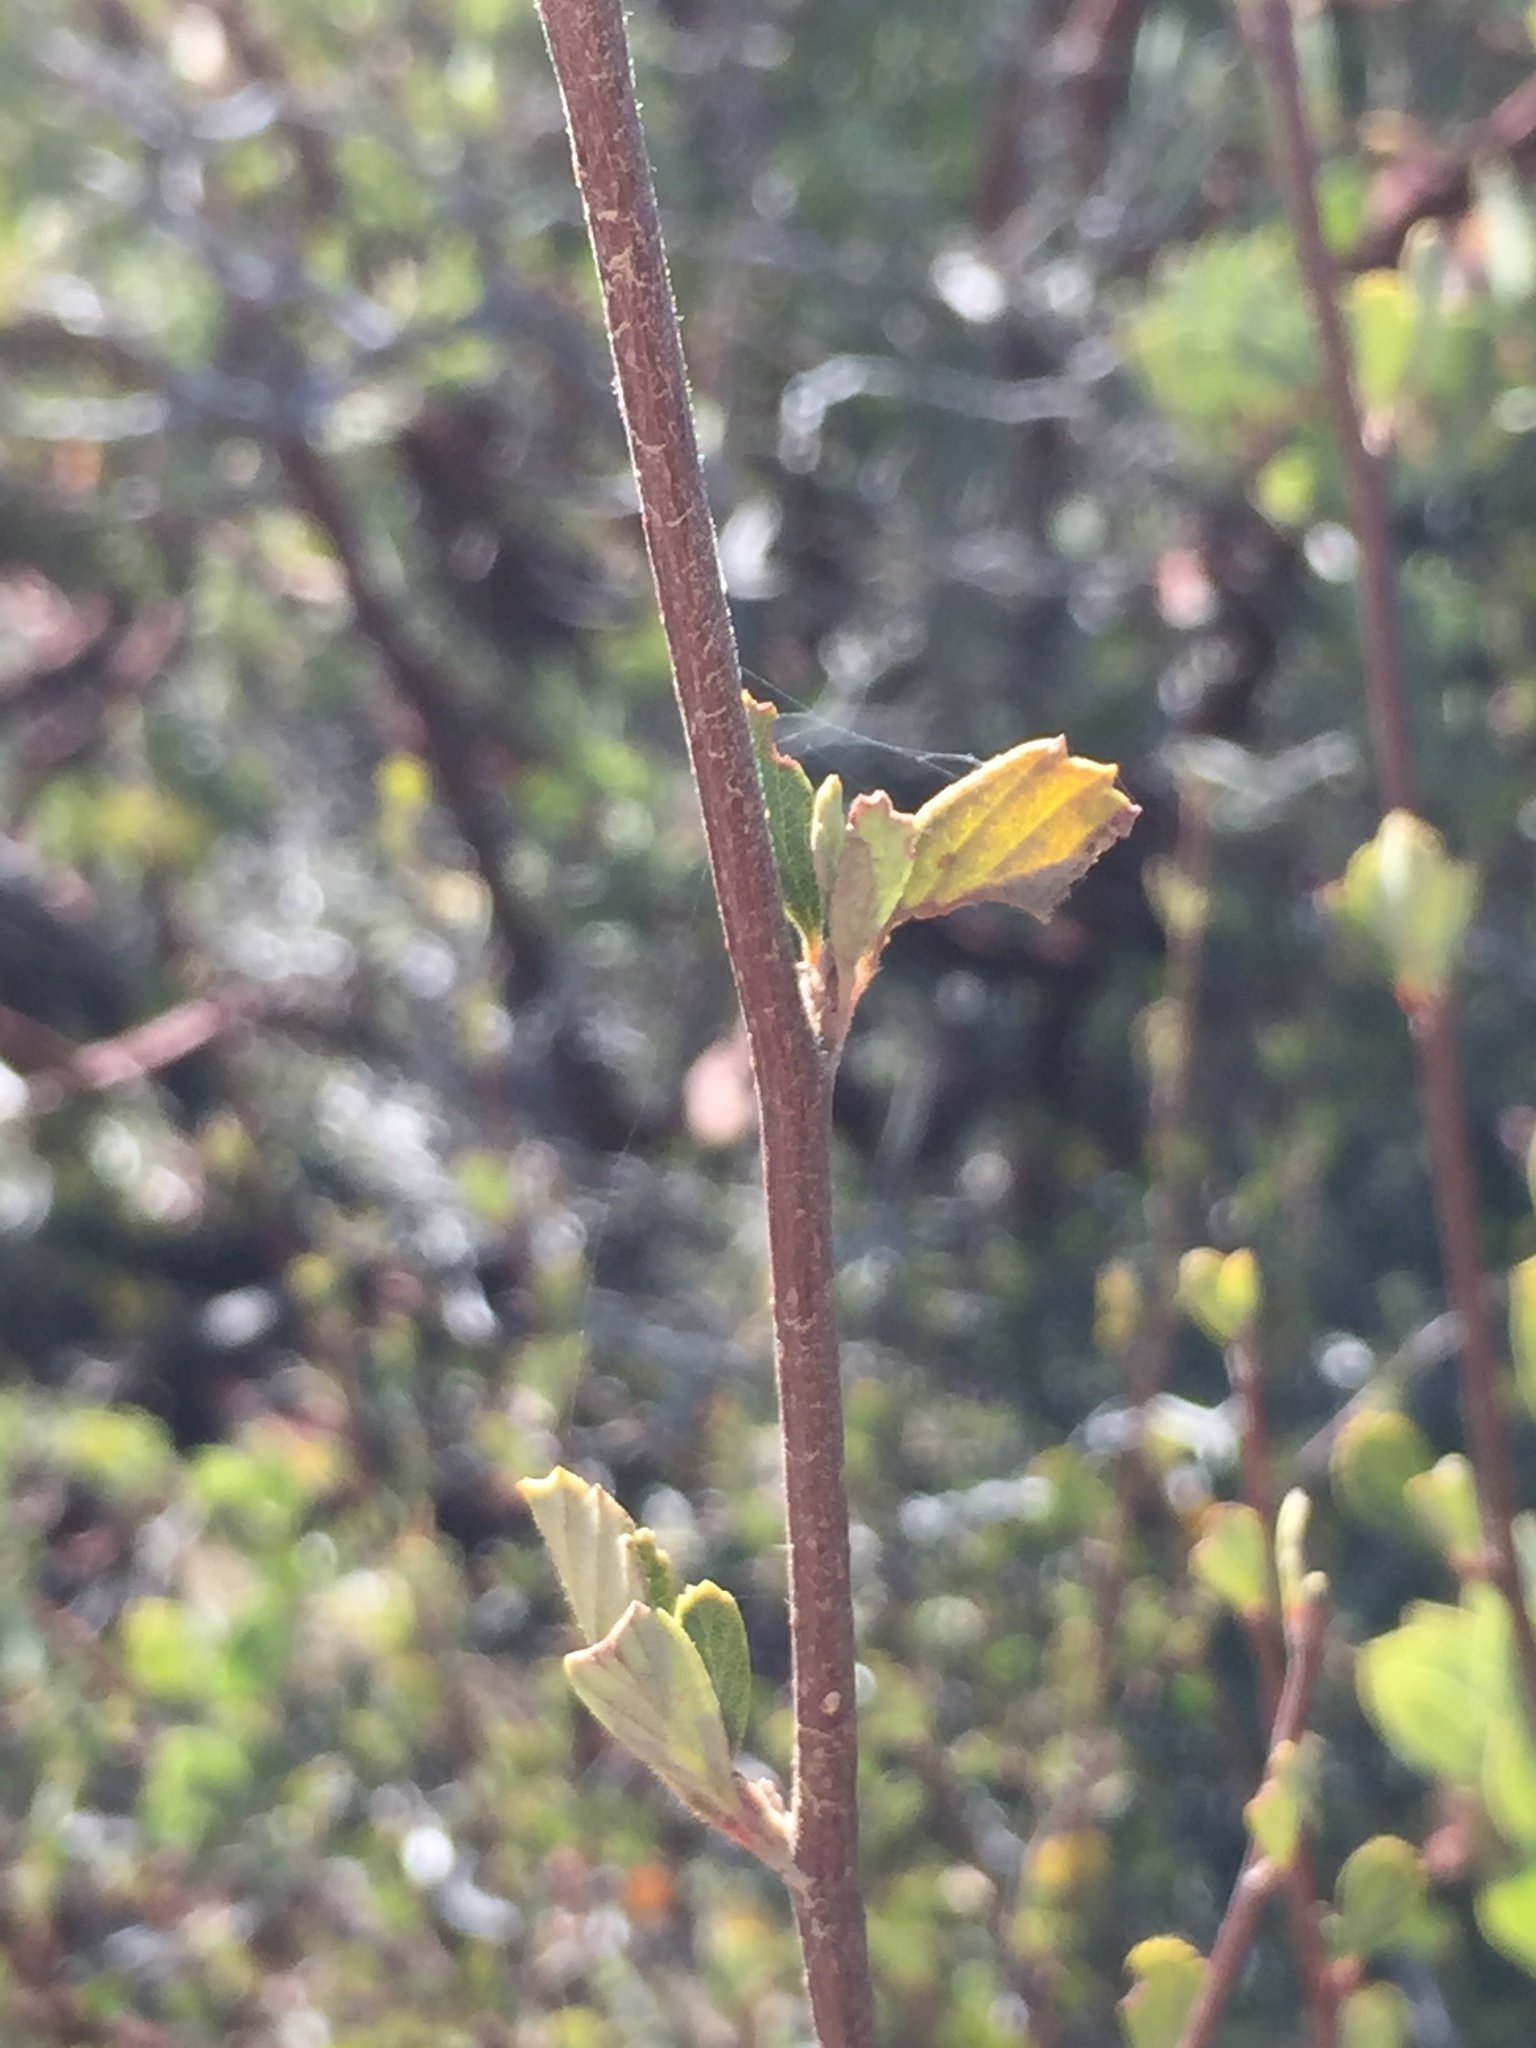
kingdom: Plantae
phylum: Tracheophyta
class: Magnoliopsida
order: Rosales
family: Rosaceae
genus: Cercocarpus
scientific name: Cercocarpus betuloides
